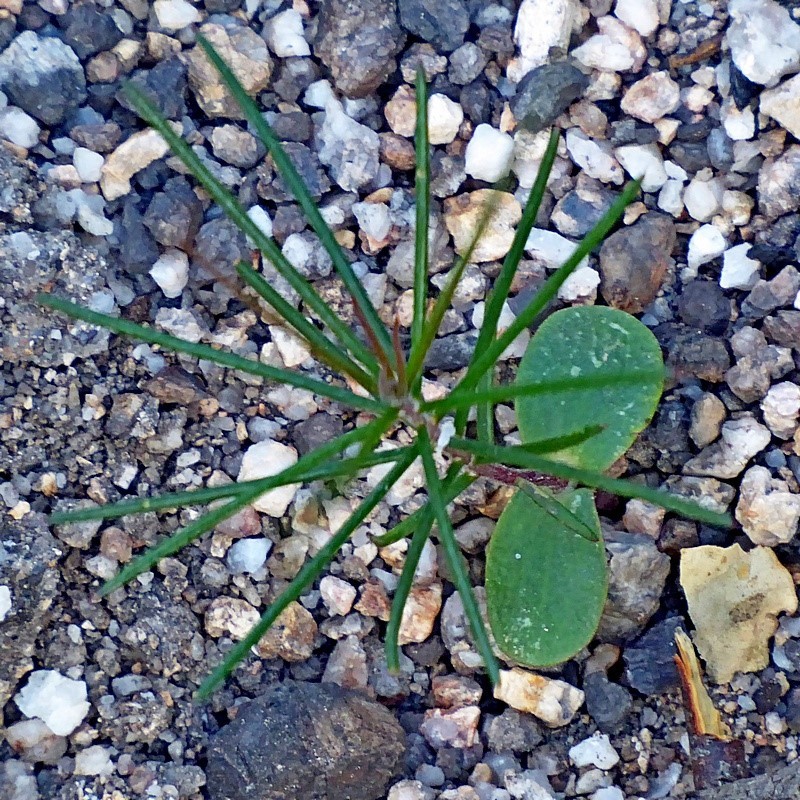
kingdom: Plantae
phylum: Tracheophyta
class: Magnoliopsida
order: Proteales
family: Proteaceae
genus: Hakea
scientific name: Hakea macraeana
